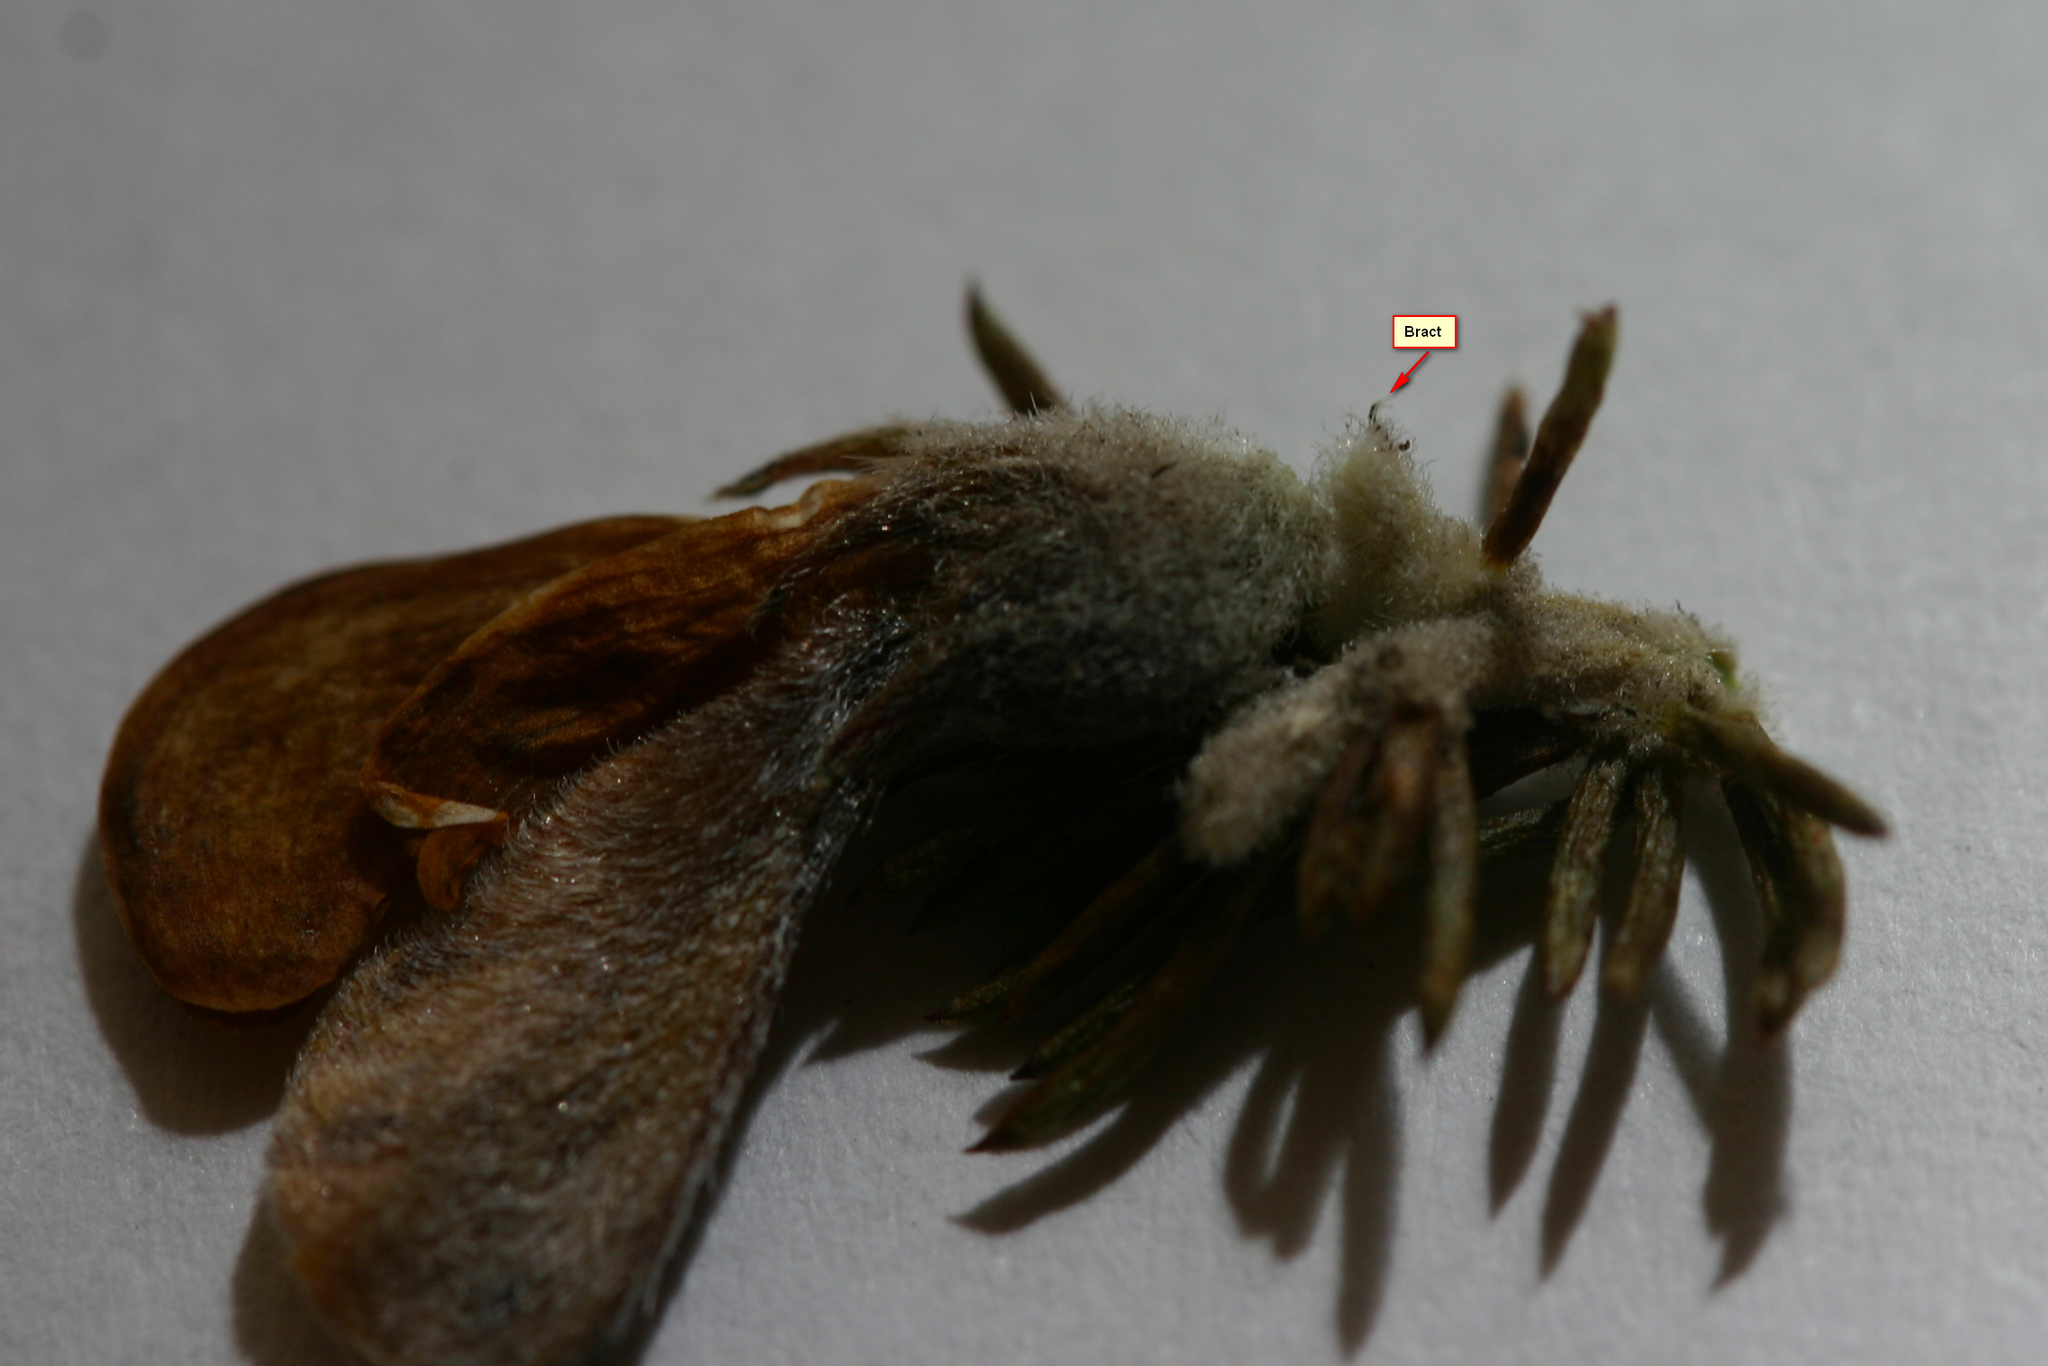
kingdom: Plantae
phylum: Tracheophyta
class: Magnoliopsida
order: Fabales
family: Fabaceae
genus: Aspalathus
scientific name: Aspalathus cliffortioides
